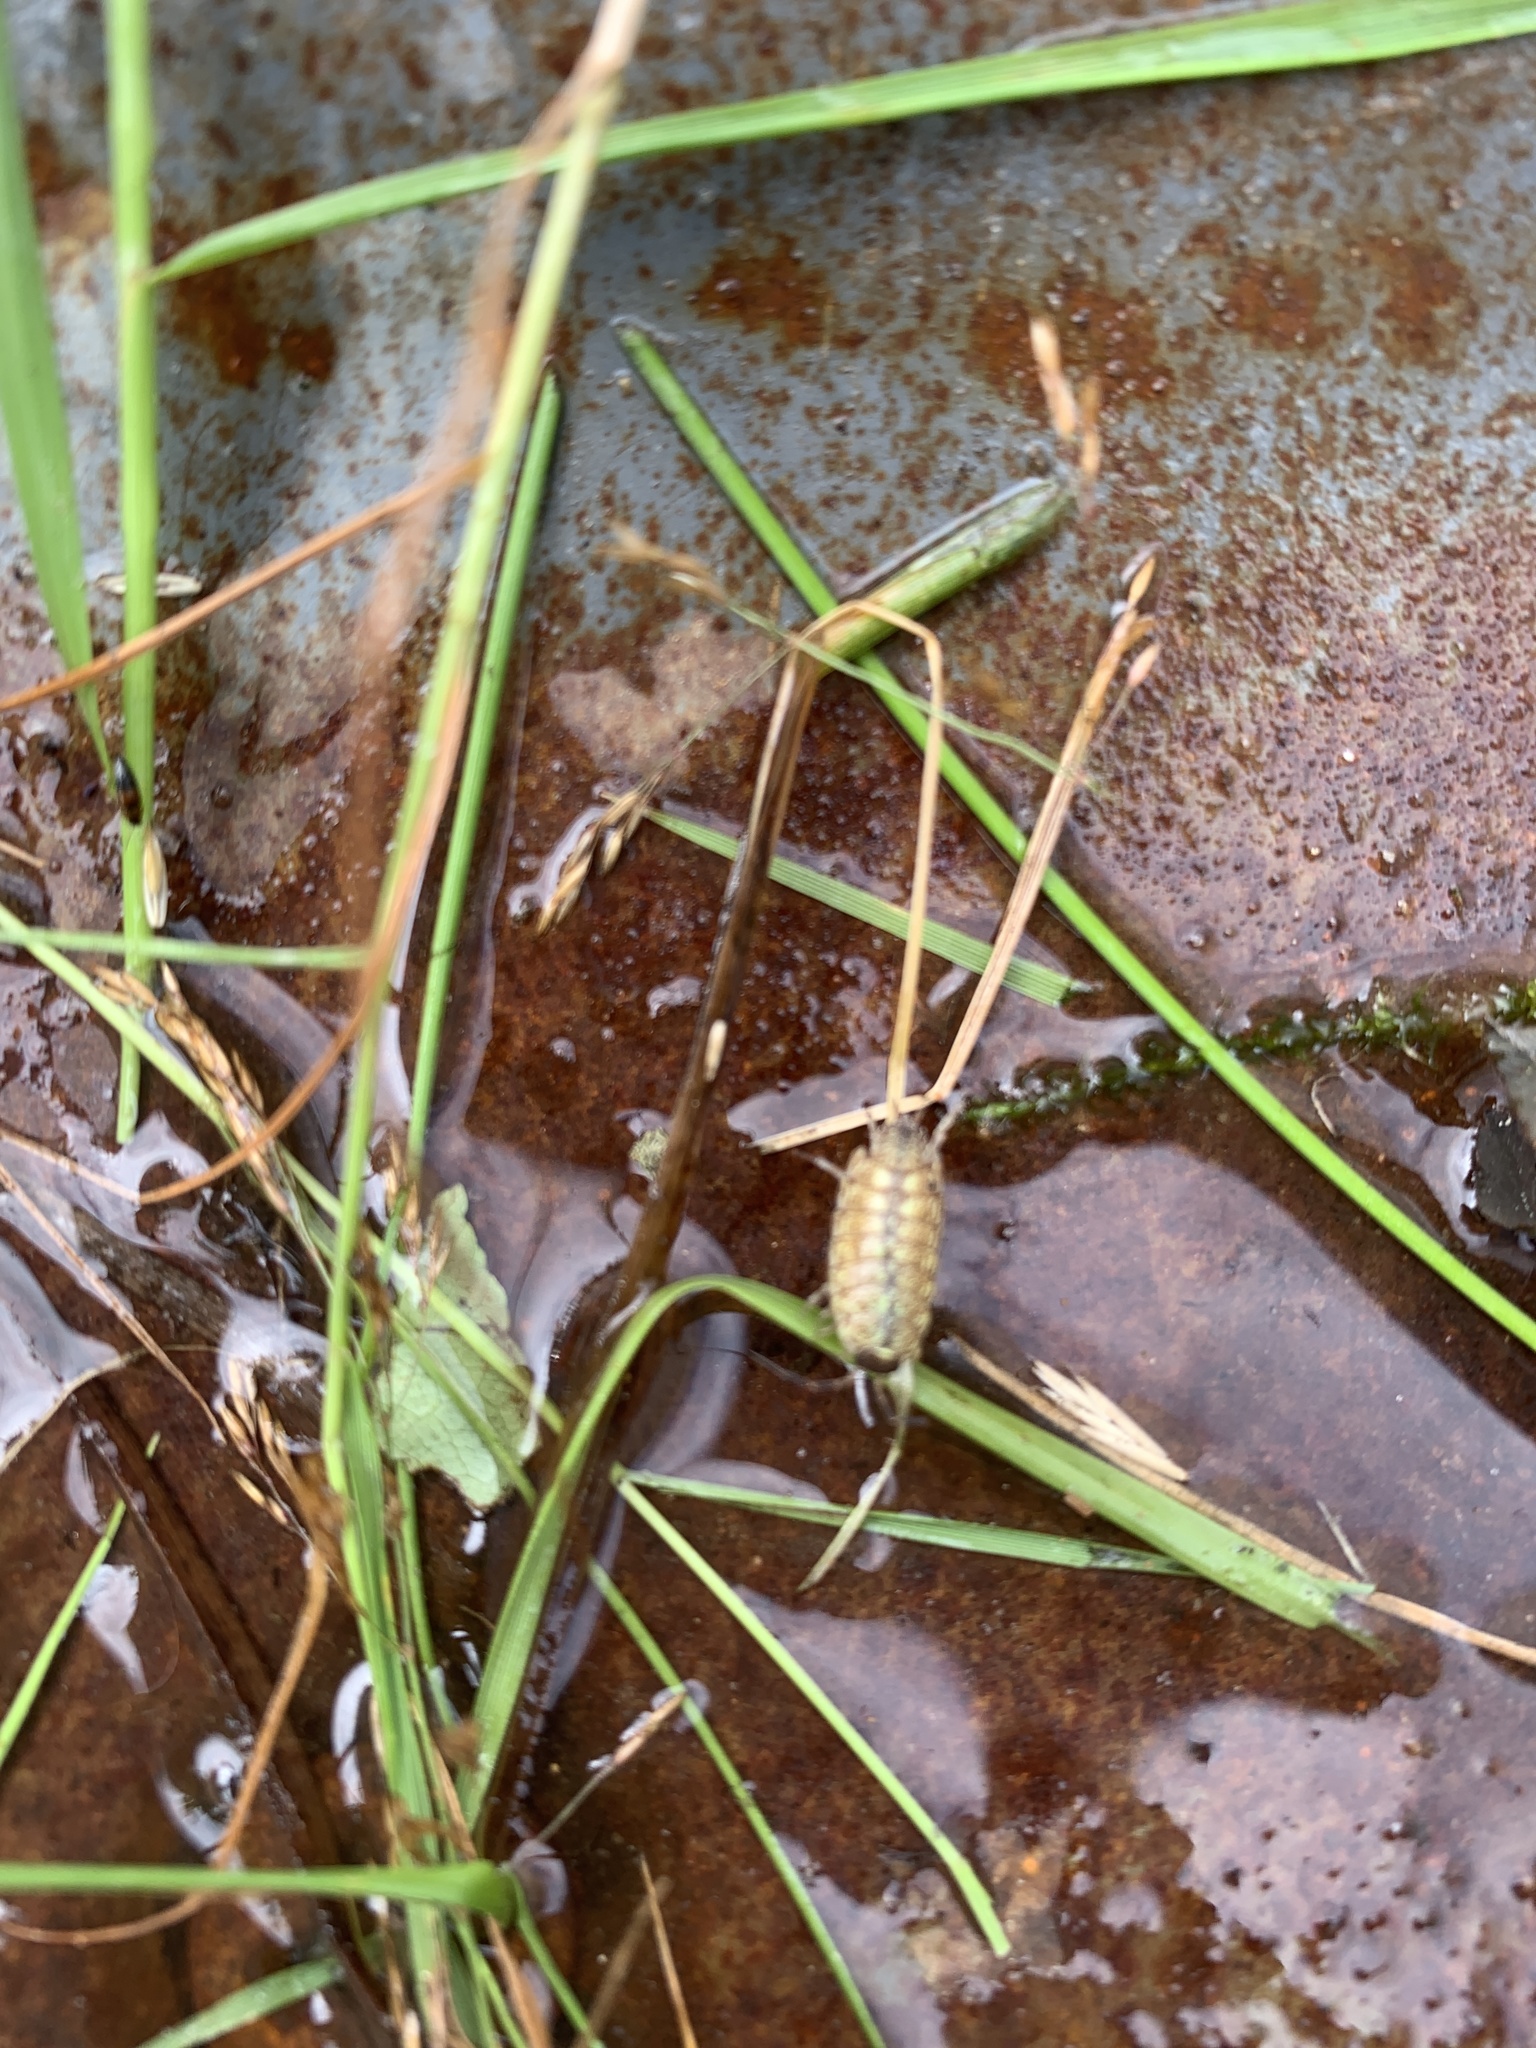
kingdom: Animalia
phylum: Arthropoda
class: Malacostraca
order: Isopoda
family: Philosciidae
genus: Philoscia
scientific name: Philoscia muscorum
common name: Common striped woodlouse
